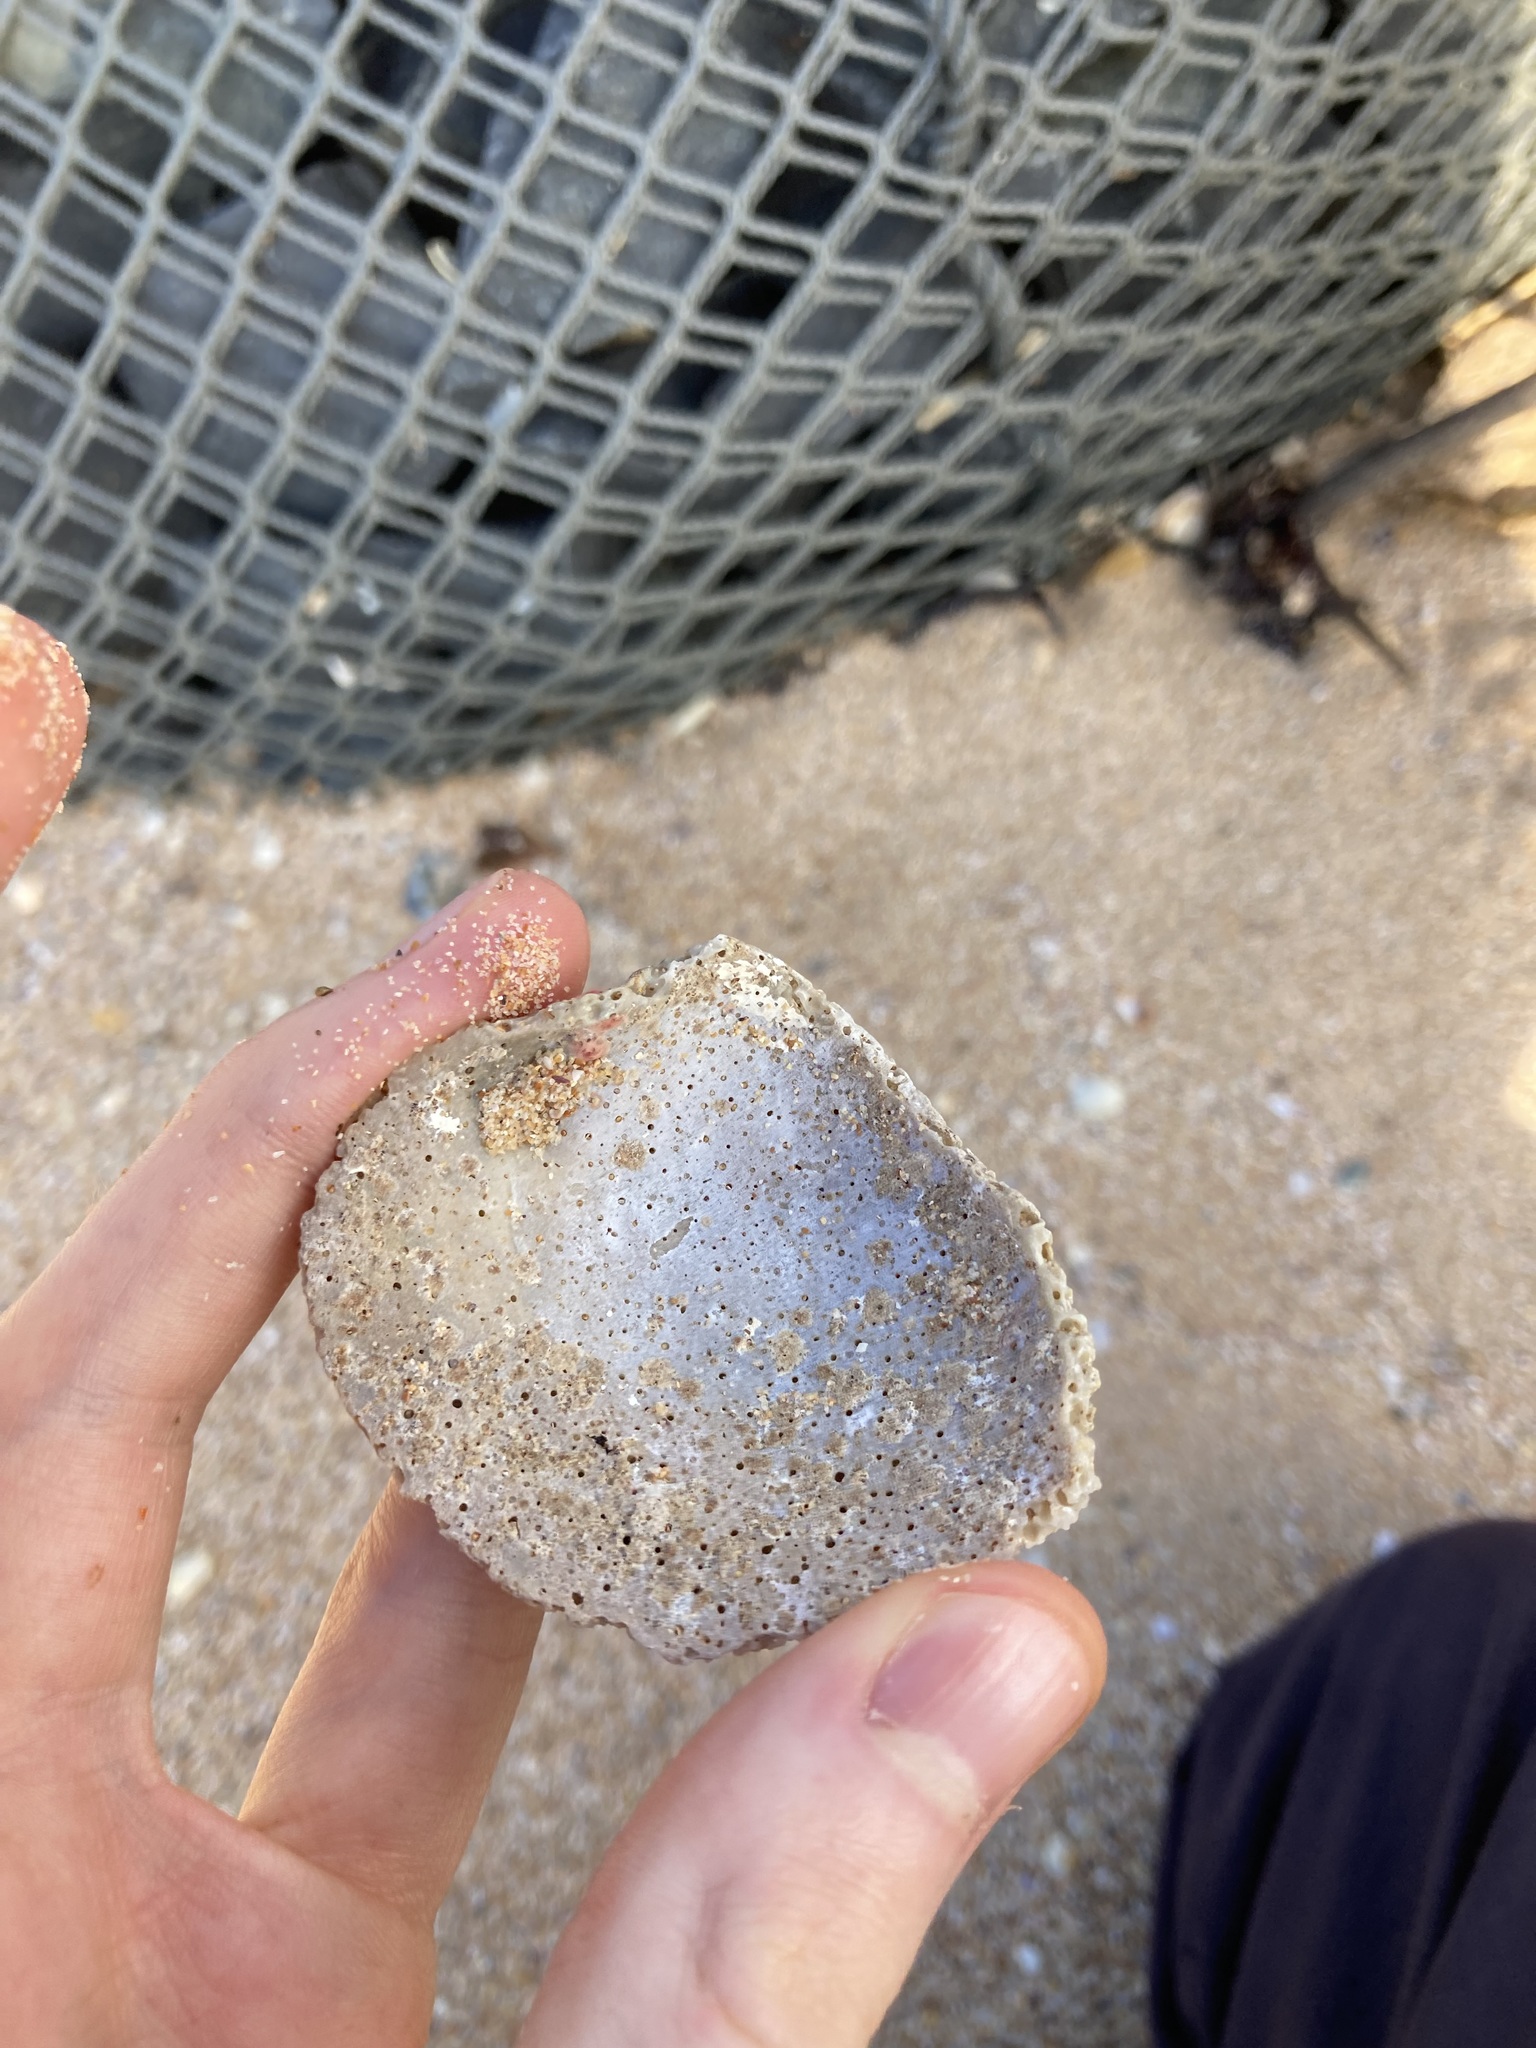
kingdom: Animalia
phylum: Mollusca
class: Bivalvia
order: Venerida
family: Veneridae
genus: Bassina
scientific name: Bassina pachyphylla
